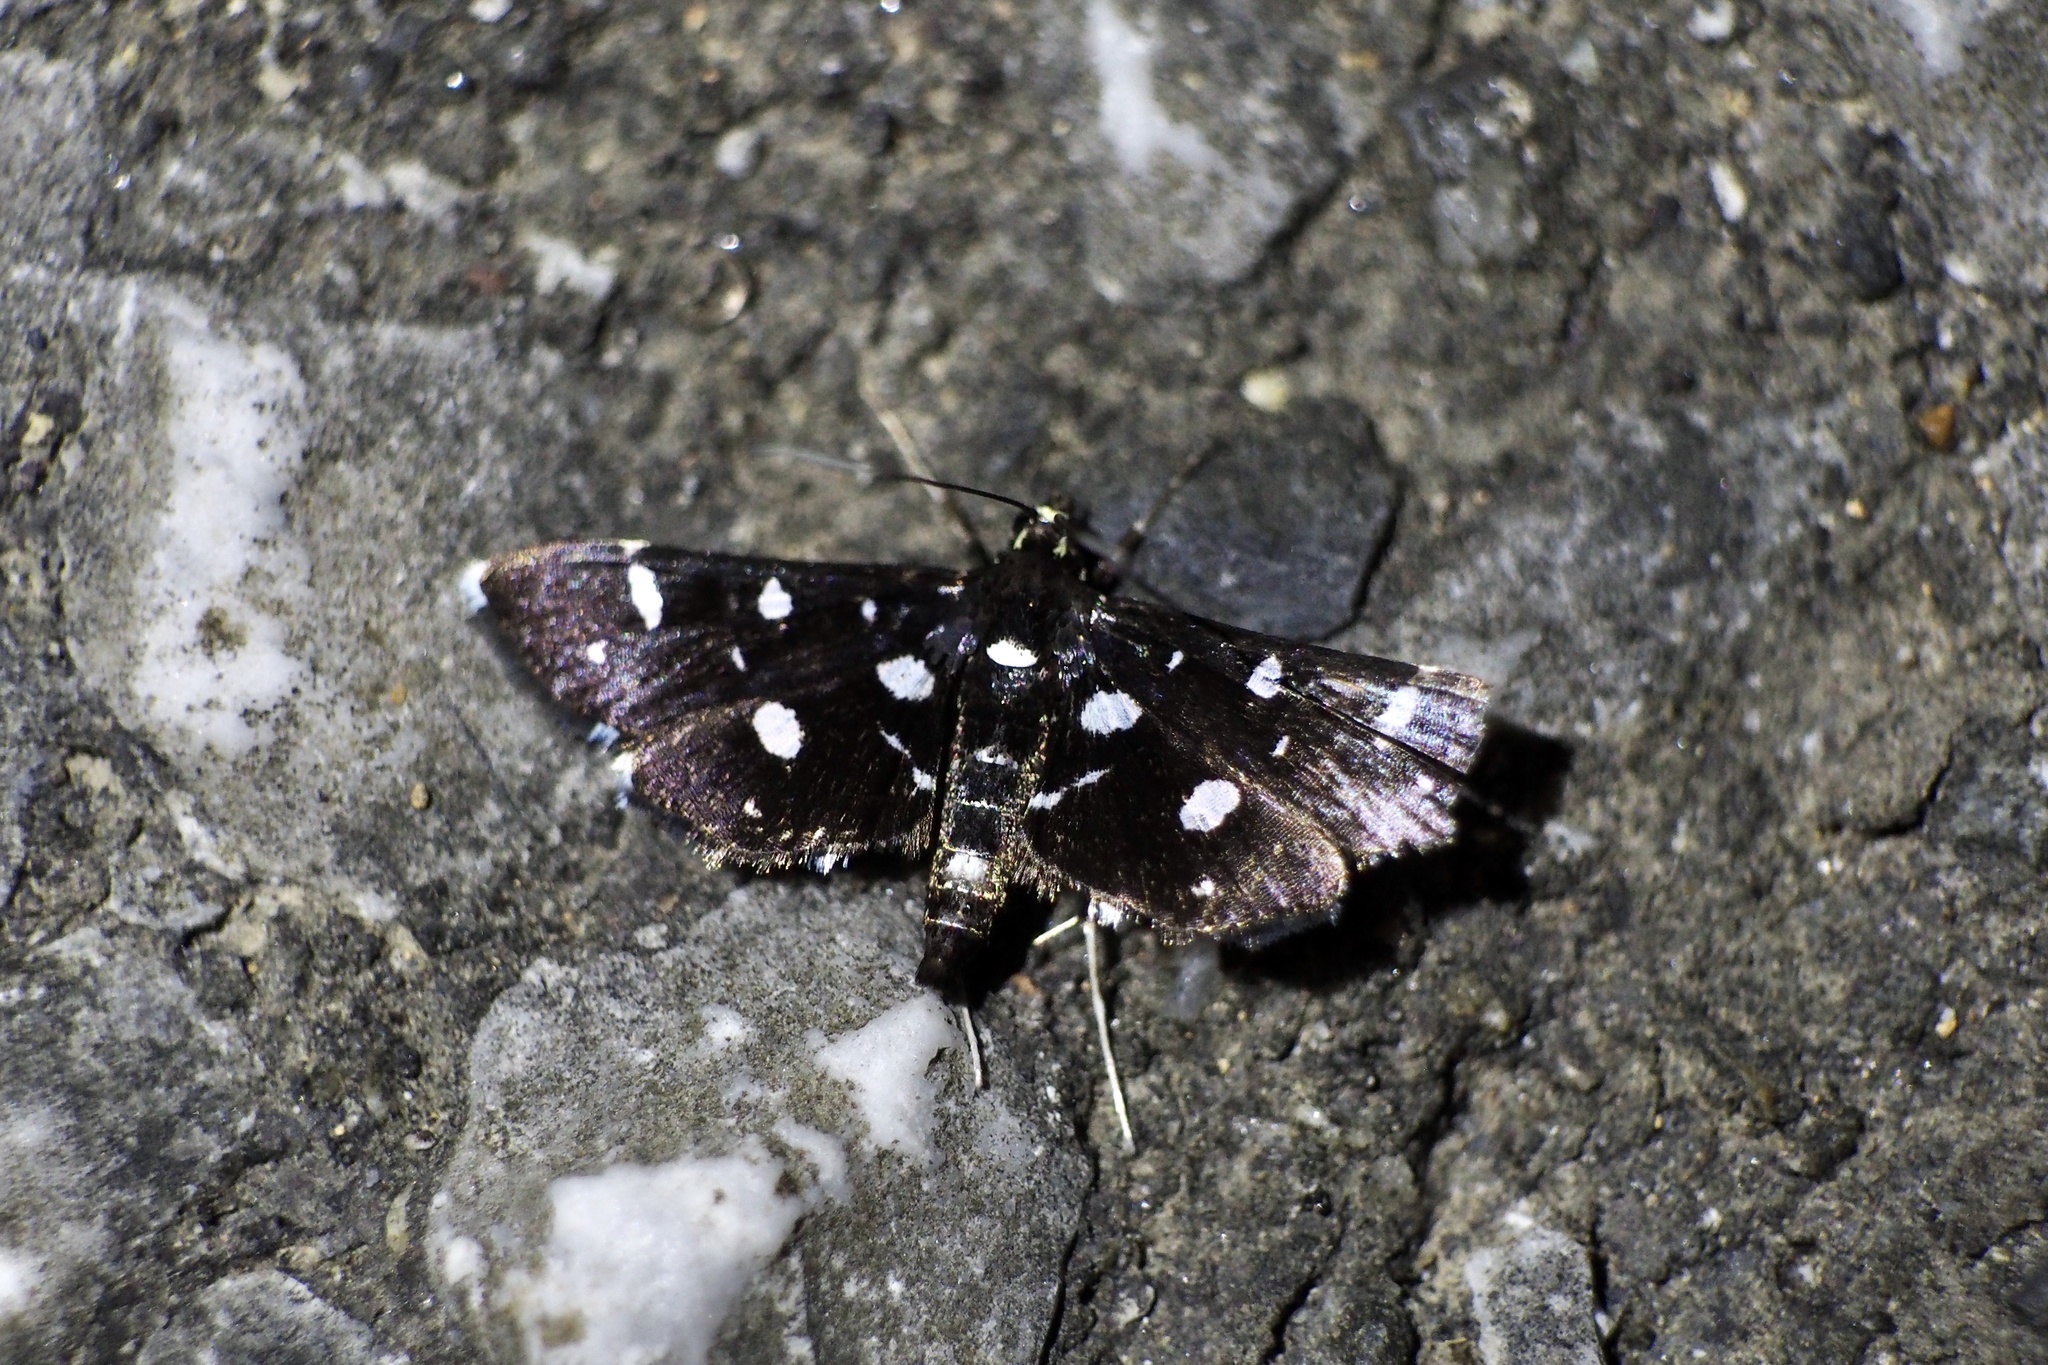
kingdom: Animalia
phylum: Arthropoda
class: Insecta
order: Lepidoptera
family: Crambidae
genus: Bocchoris
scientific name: Bocchoris inspersalis
